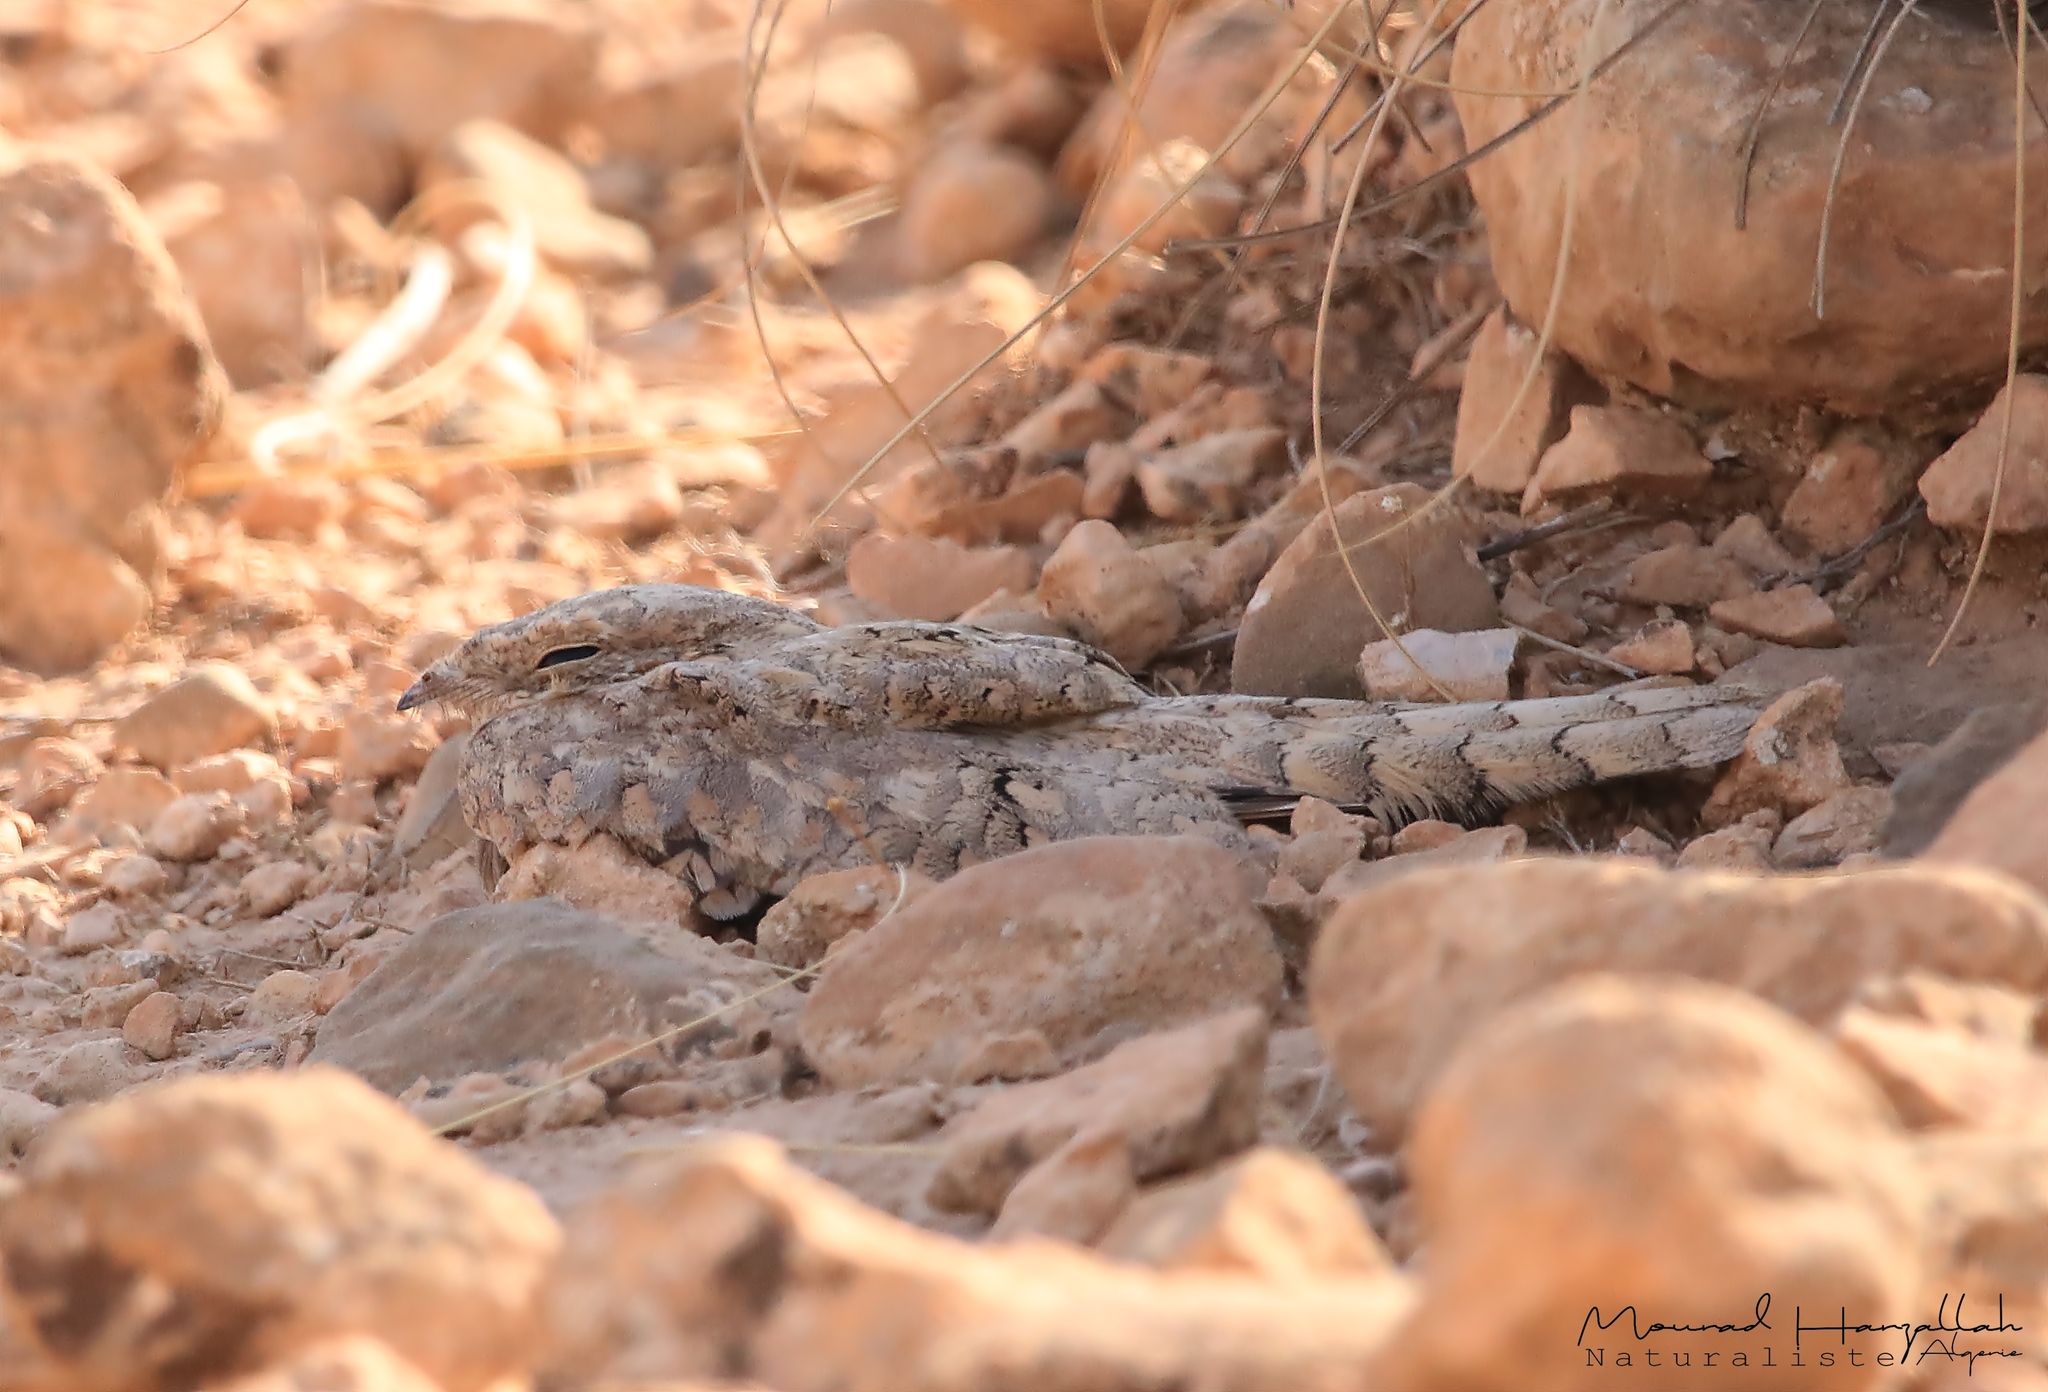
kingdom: Animalia
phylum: Chordata
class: Aves
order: Caprimulgiformes
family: Caprimulgidae
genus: Caprimulgus
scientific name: Caprimulgus aegyptius
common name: Egyptian nightjar
